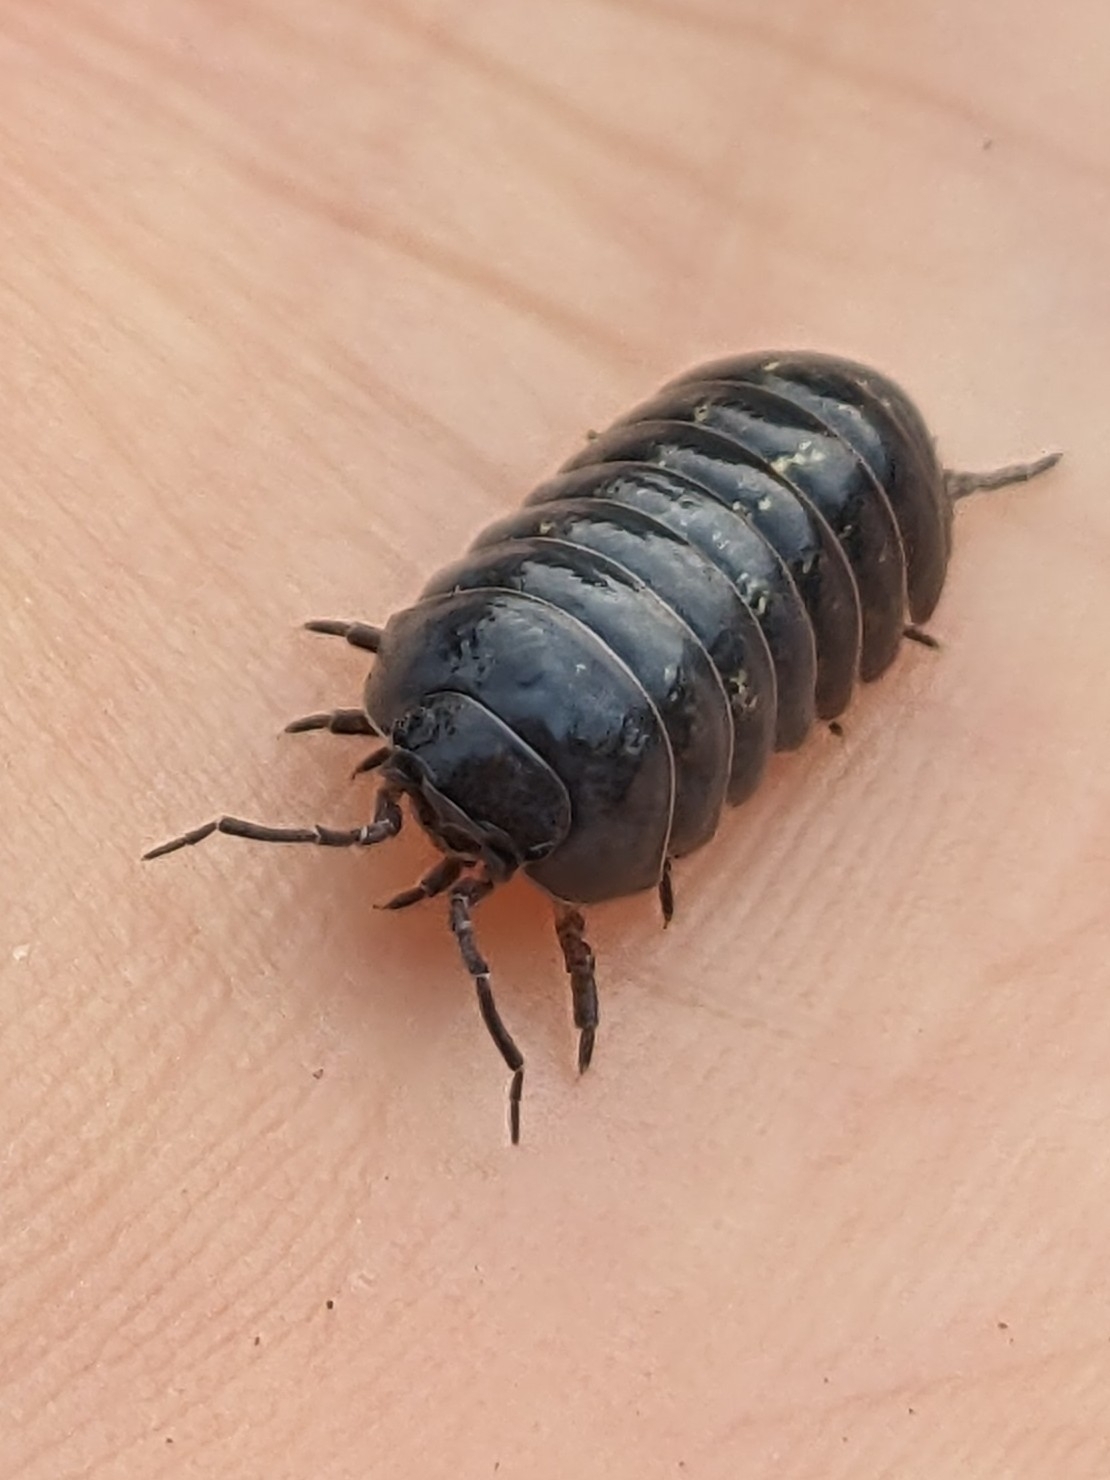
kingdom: Animalia
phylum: Arthropoda
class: Malacostraca
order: Isopoda
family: Armadillidiidae
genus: Armadillidium
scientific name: Armadillidium vulgare
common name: Common pill woodlouse
